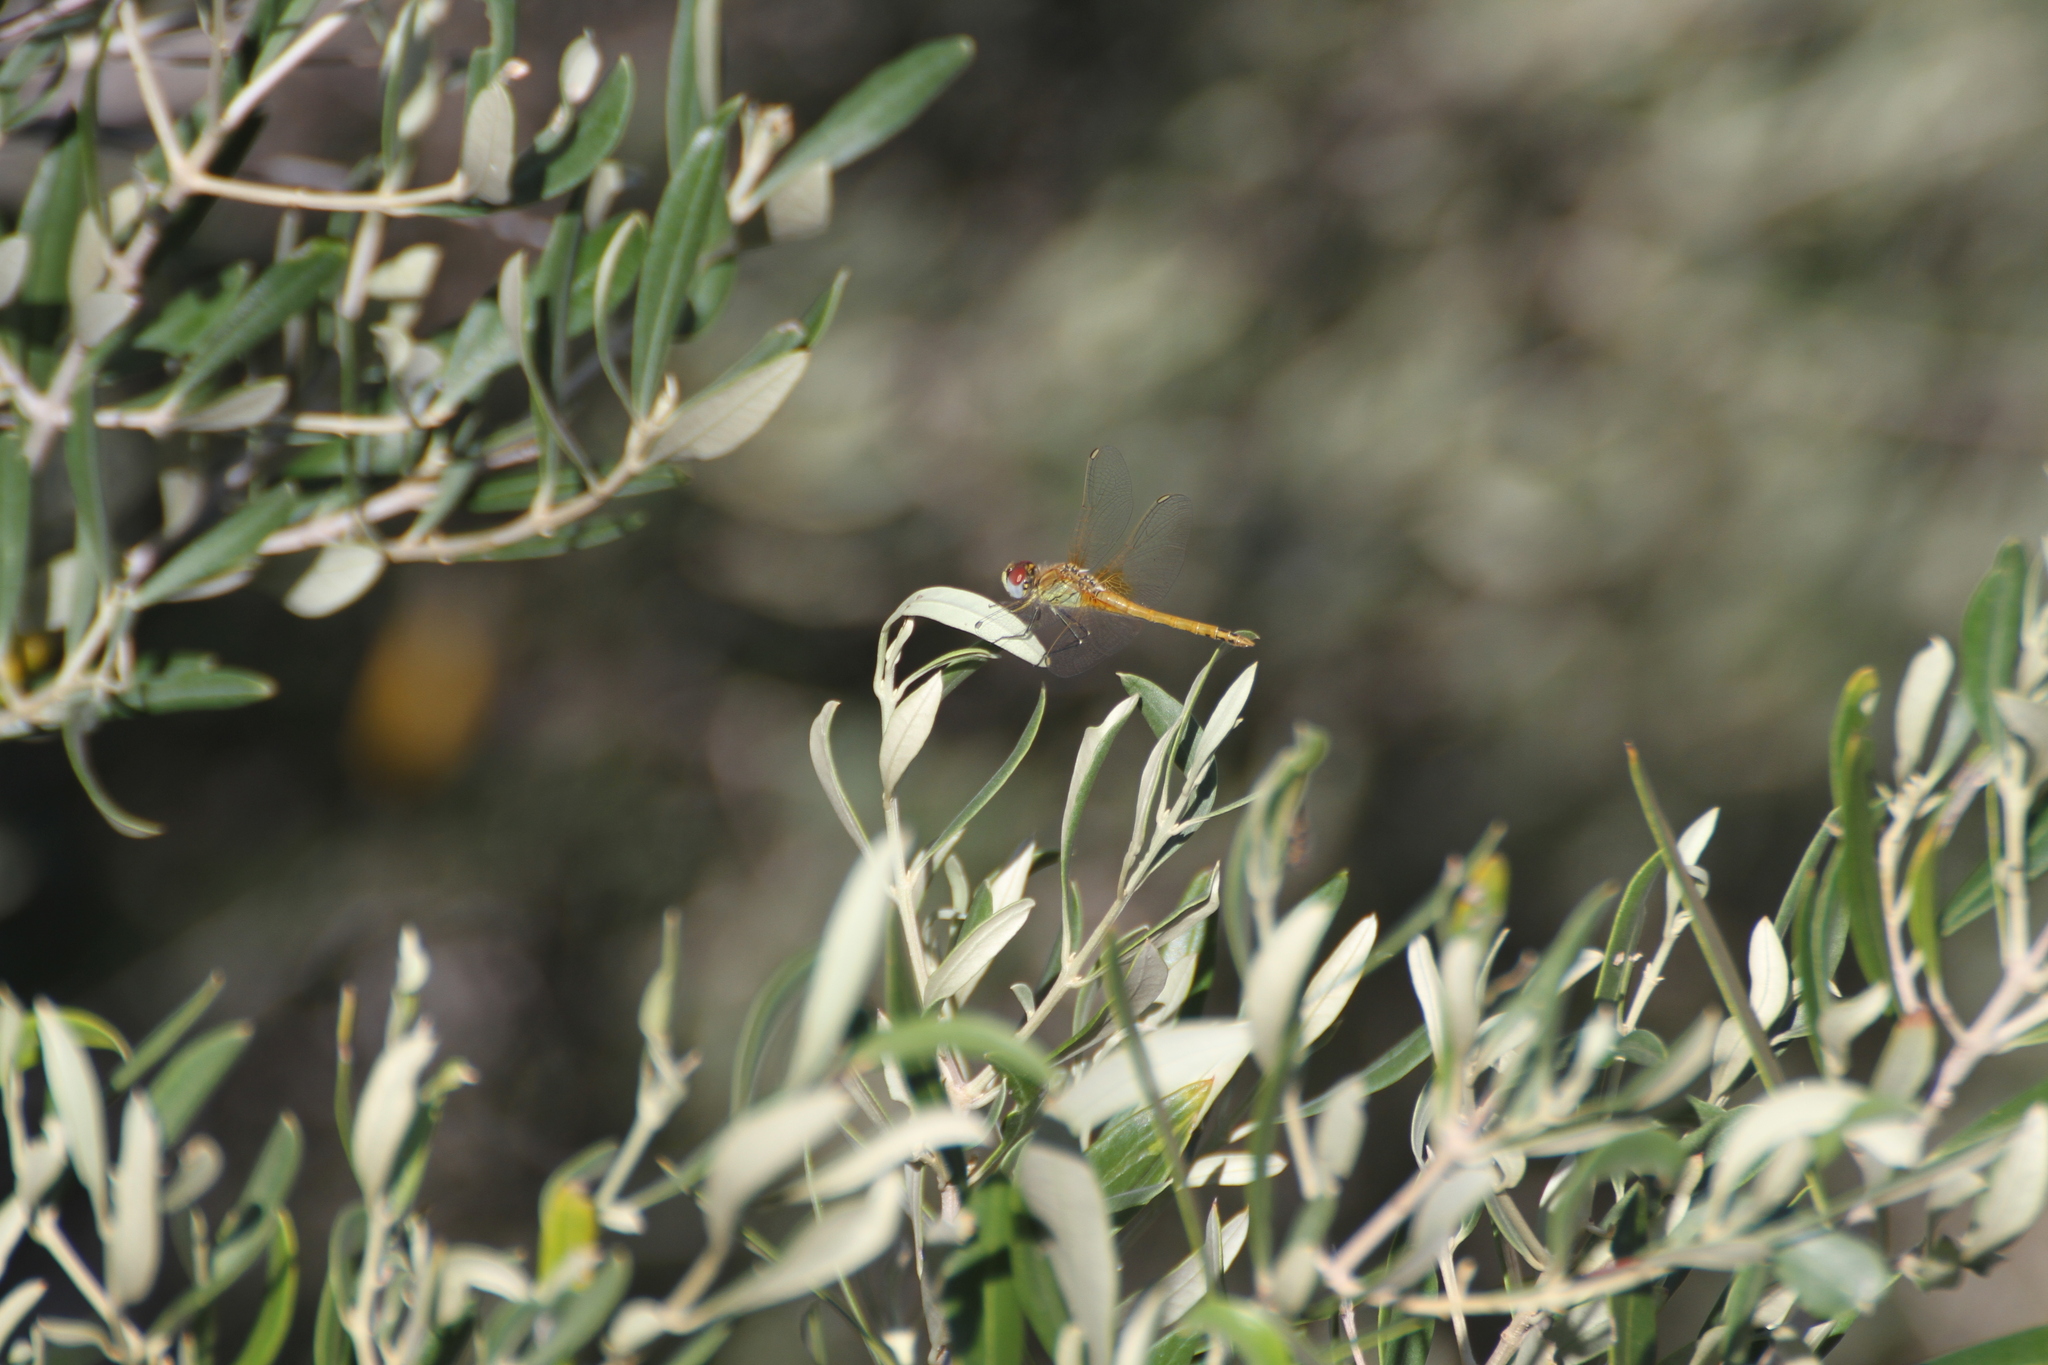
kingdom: Animalia
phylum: Arthropoda
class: Insecta
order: Odonata
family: Libellulidae
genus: Sympetrum
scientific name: Sympetrum fonscolombii
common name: Red-veined darter
